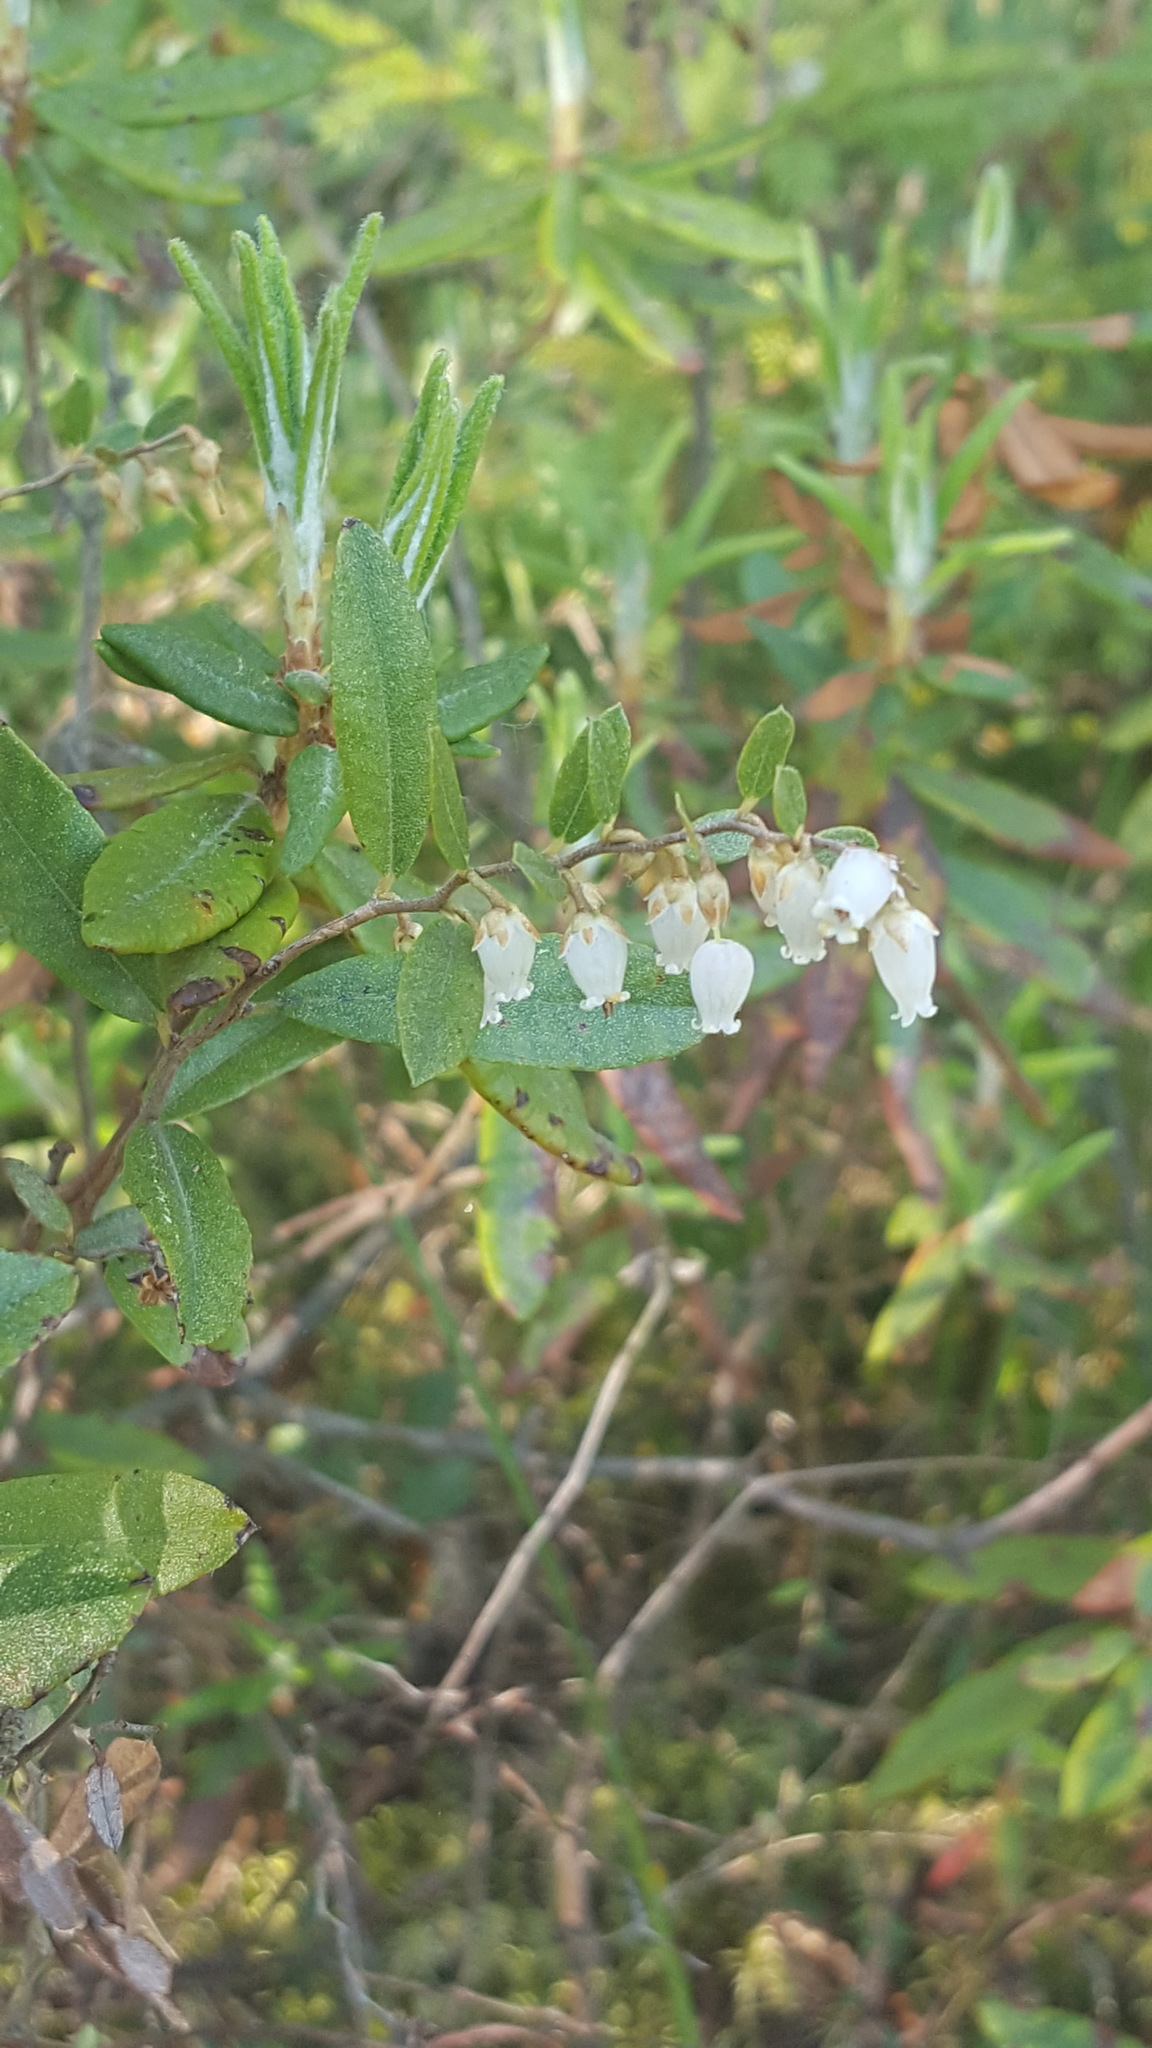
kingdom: Plantae
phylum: Tracheophyta
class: Magnoliopsida
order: Ericales
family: Ericaceae
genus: Chamaedaphne
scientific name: Chamaedaphne calyculata
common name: Leatherleaf
